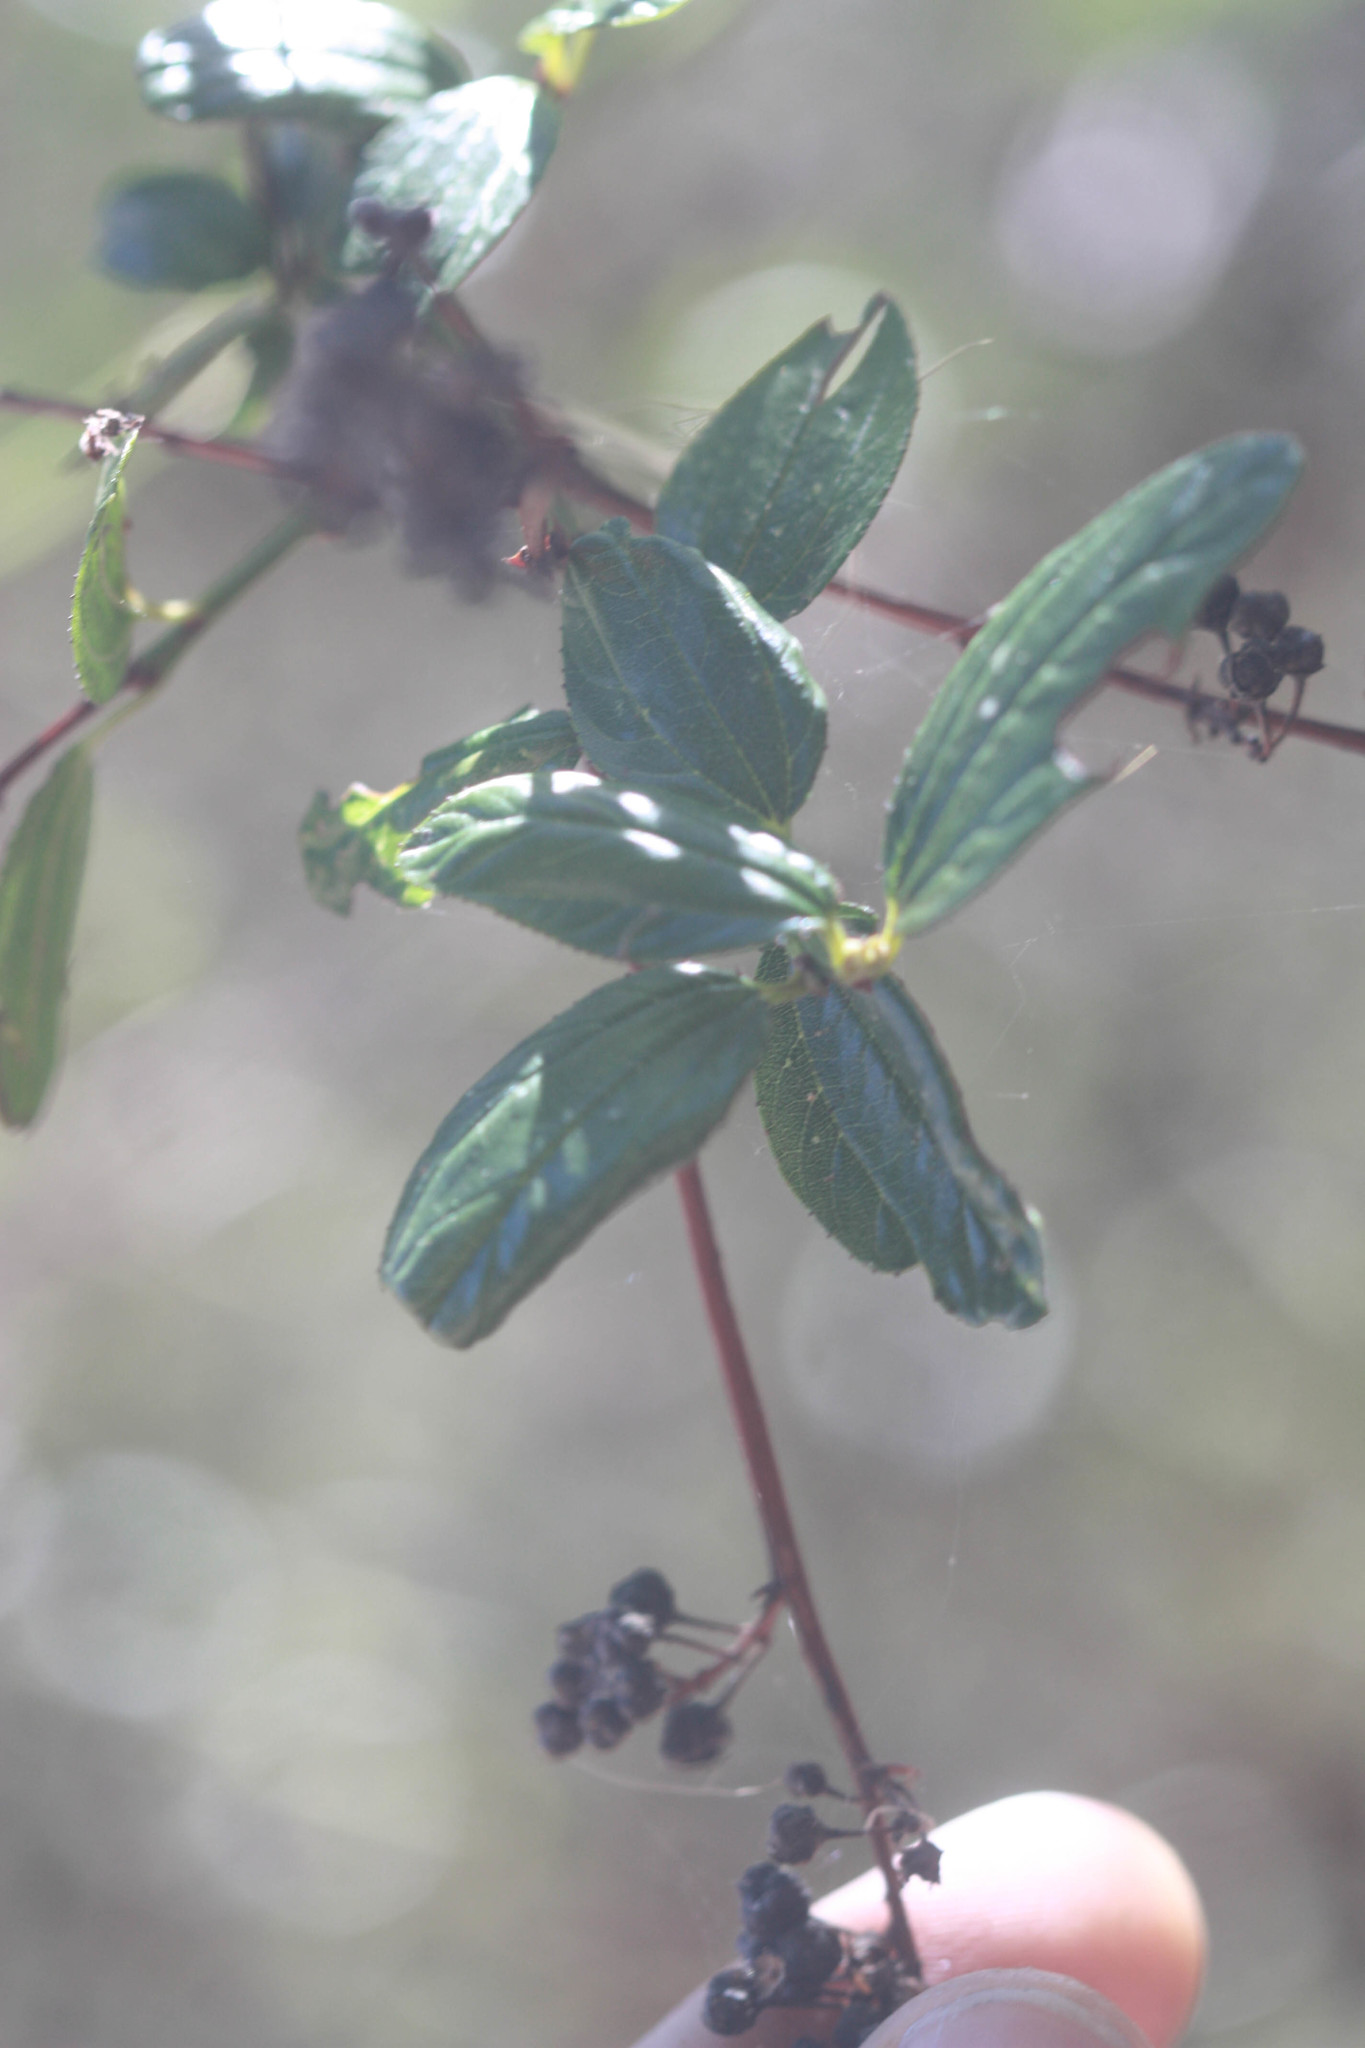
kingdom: Plantae
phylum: Tracheophyta
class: Magnoliopsida
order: Rosales
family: Rhamnaceae
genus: Ceanothus
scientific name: Ceanothus thyrsiflorus
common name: California-lilac
